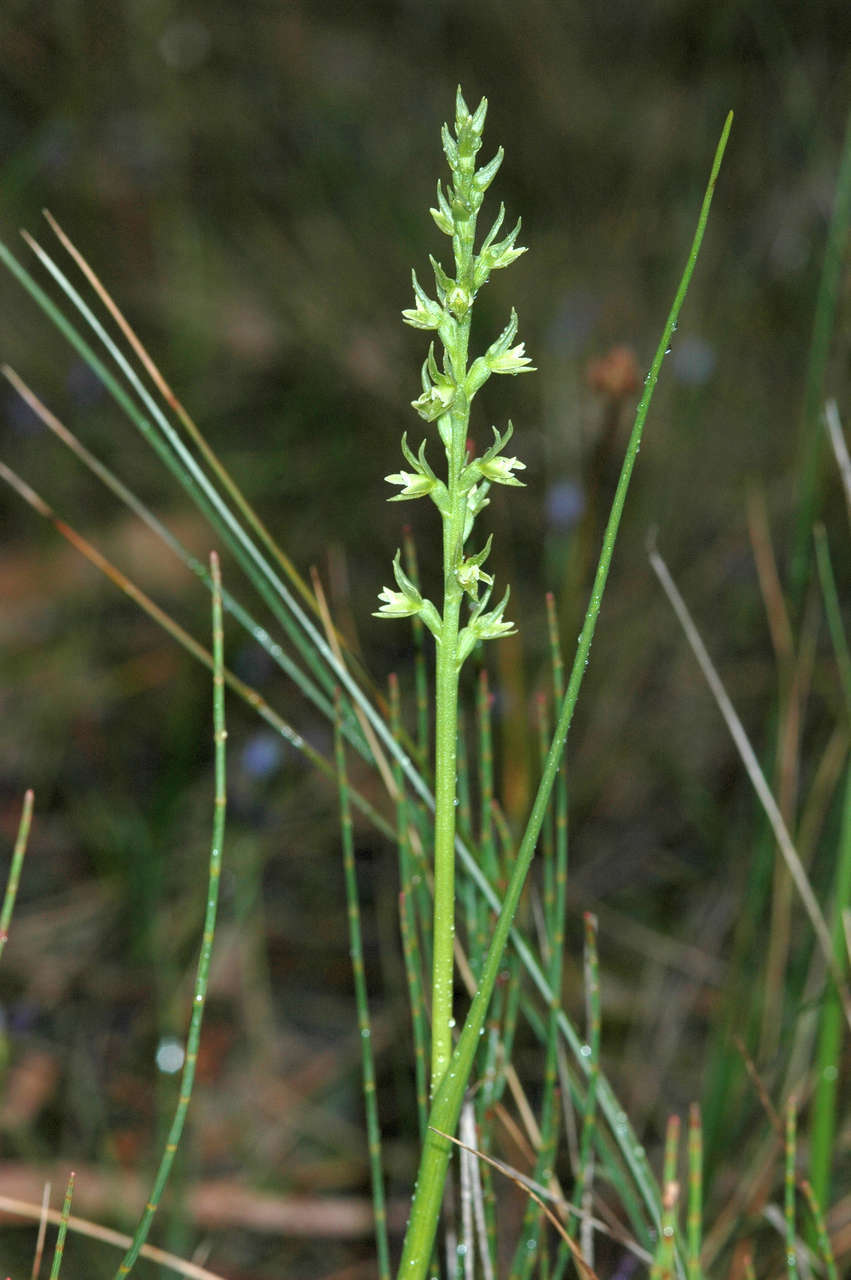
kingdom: Plantae
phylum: Tracheophyta
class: Liliopsida
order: Asparagales
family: Orchidaceae
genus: Prasophyllum
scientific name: Prasophyllum lindleyanum
